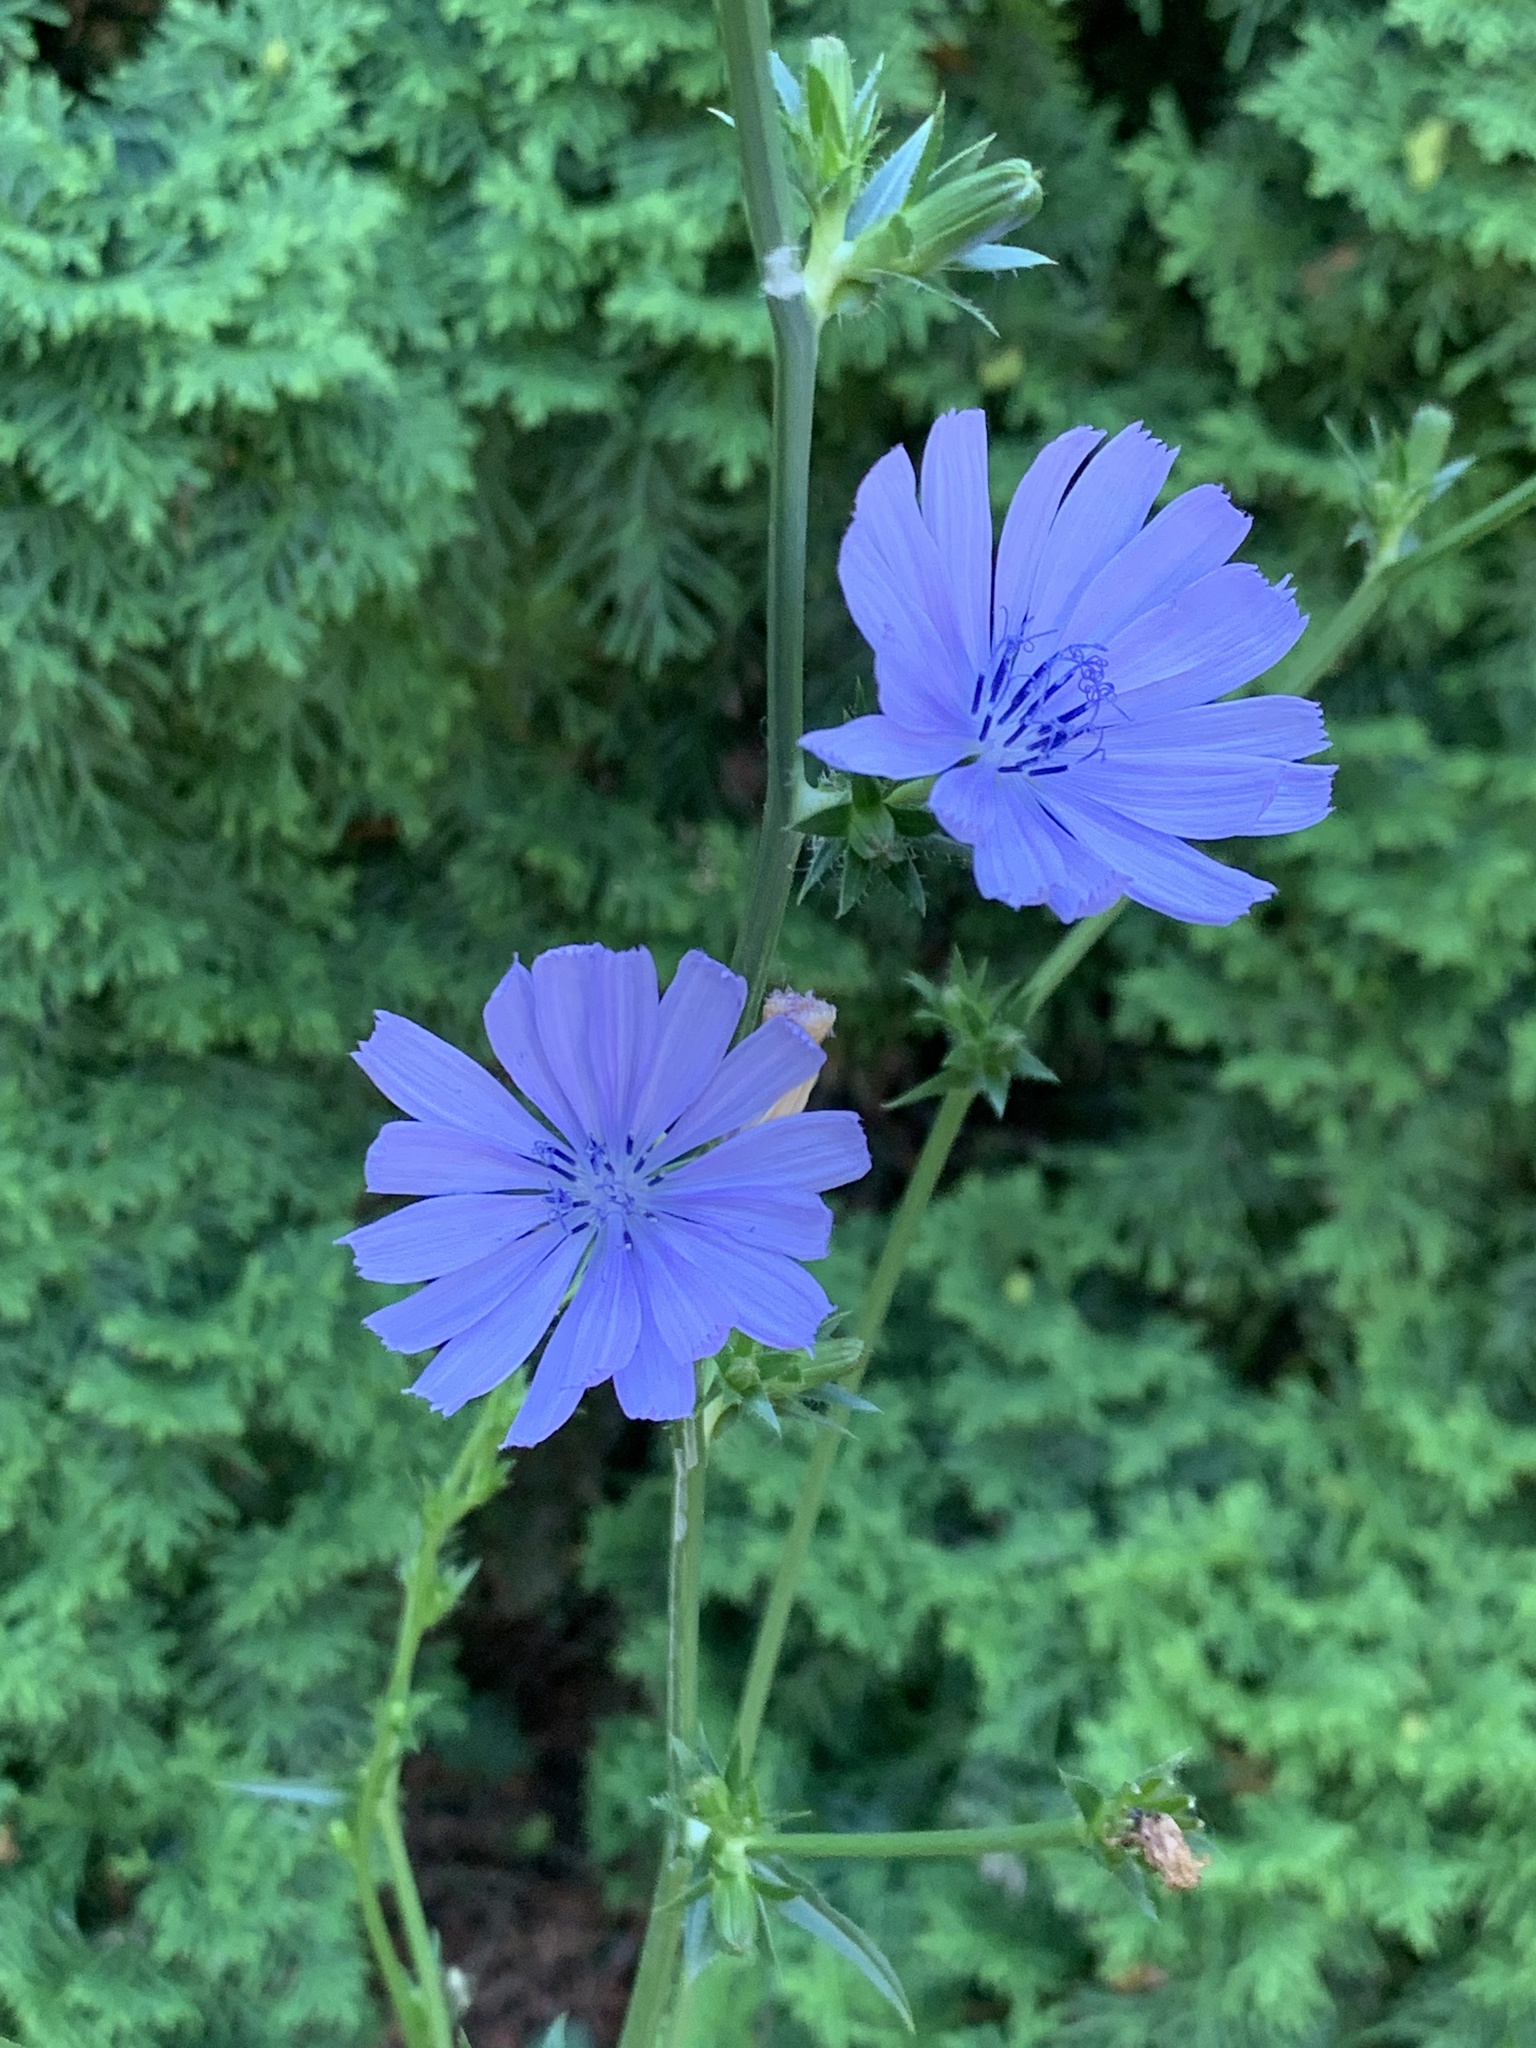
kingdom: Plantae
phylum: Tracheophyta
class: Magnoliopsida
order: Asterales
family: Asteraceae
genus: Cichorium
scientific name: Cichorium intybus
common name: Chicory
